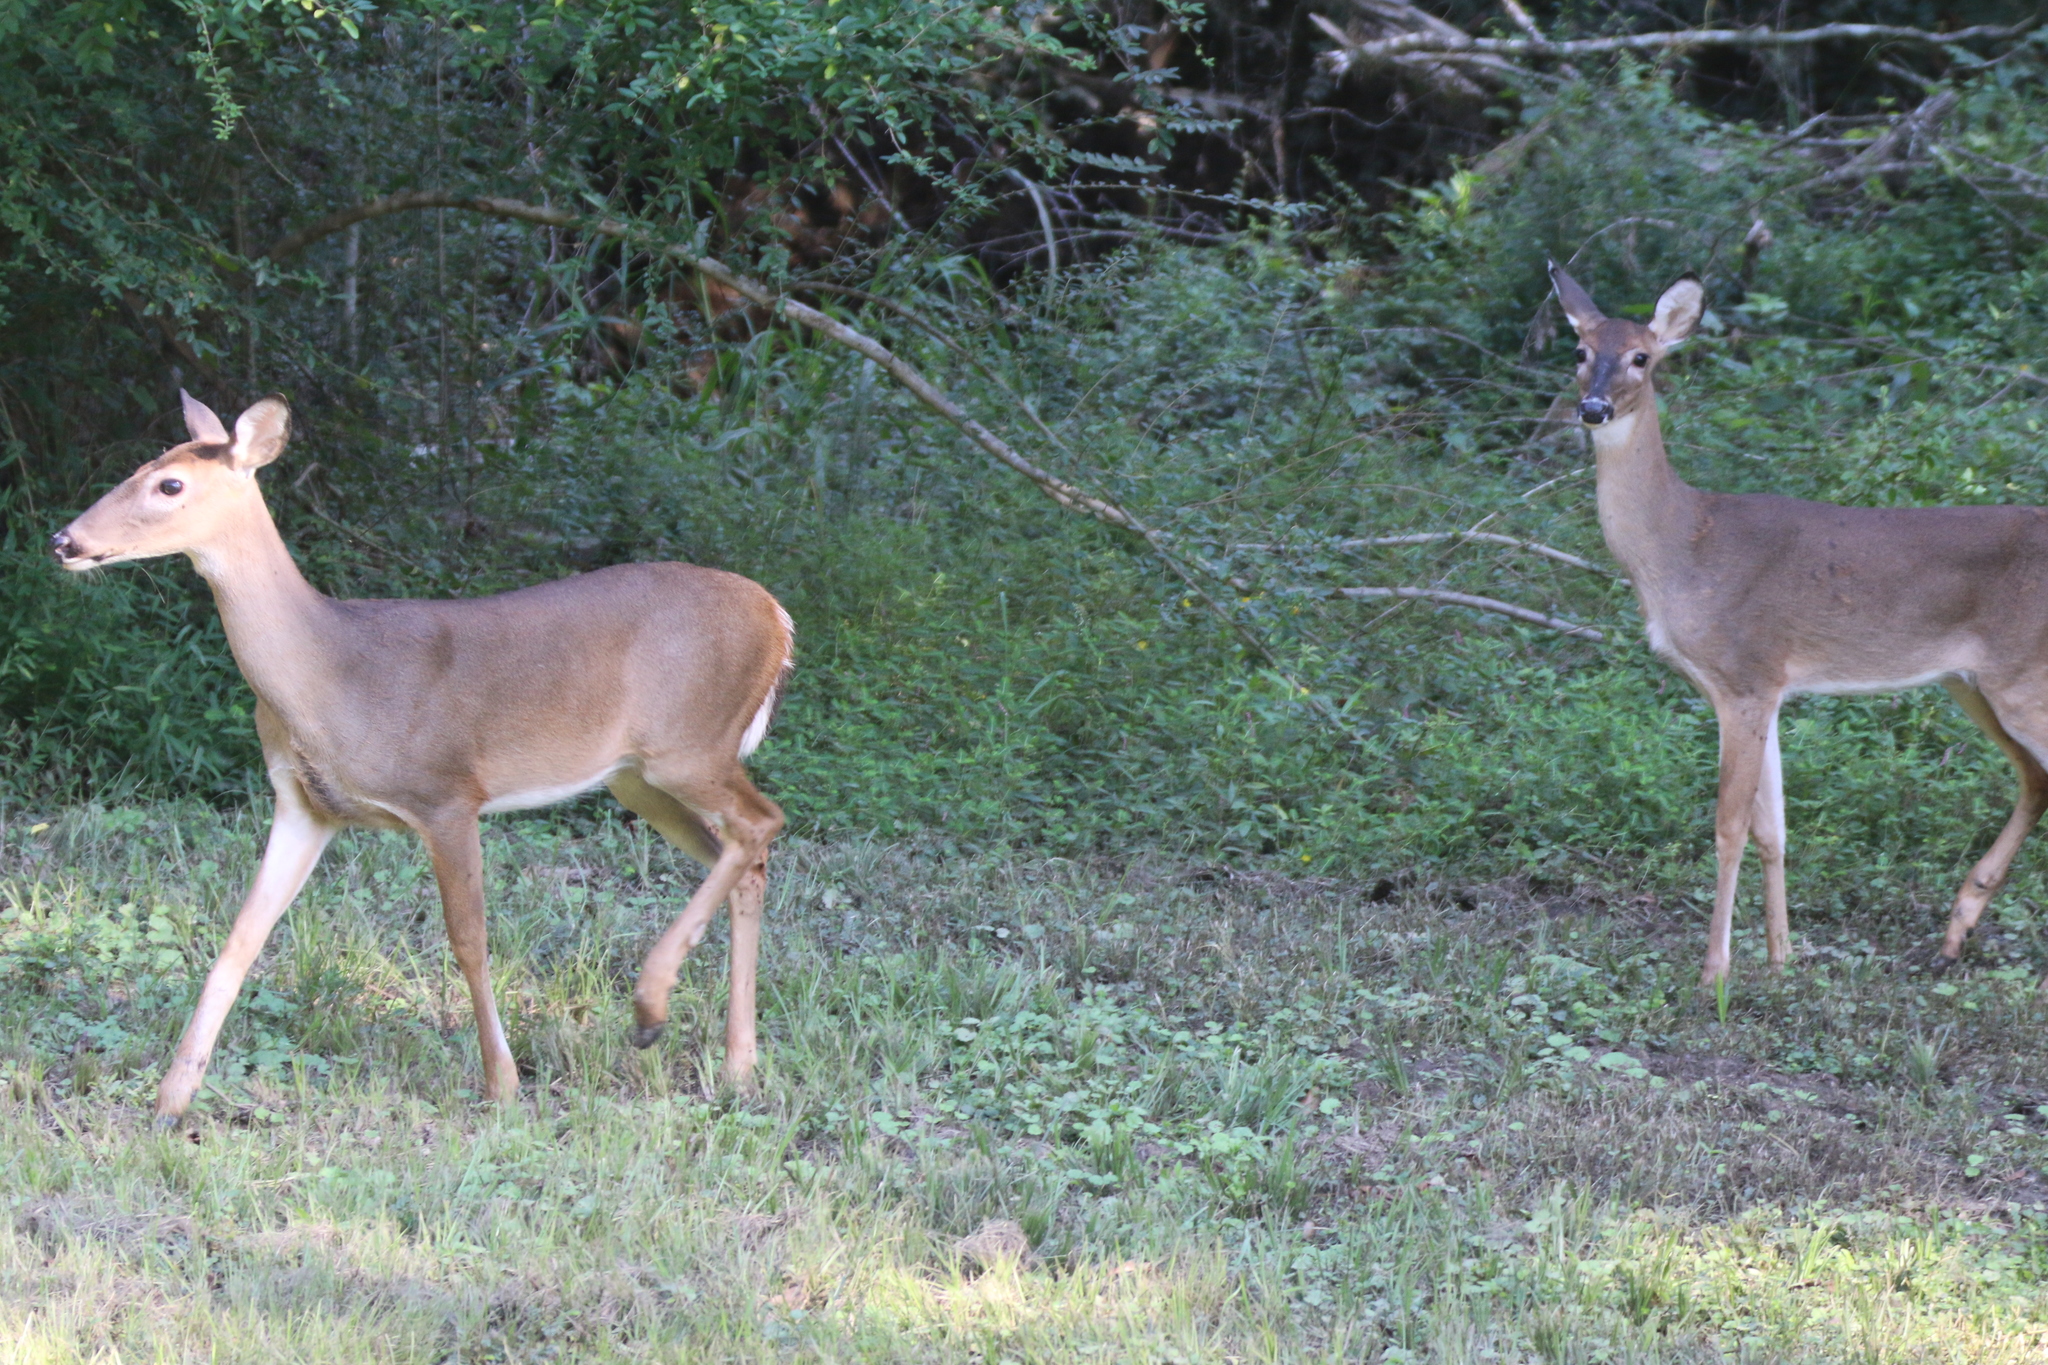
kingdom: Animalia
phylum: Chordata
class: Mammalia
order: Artiodactyla
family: Cervidae
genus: Odocoileus
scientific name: Odocoileus virginianus
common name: White-tailed deer
